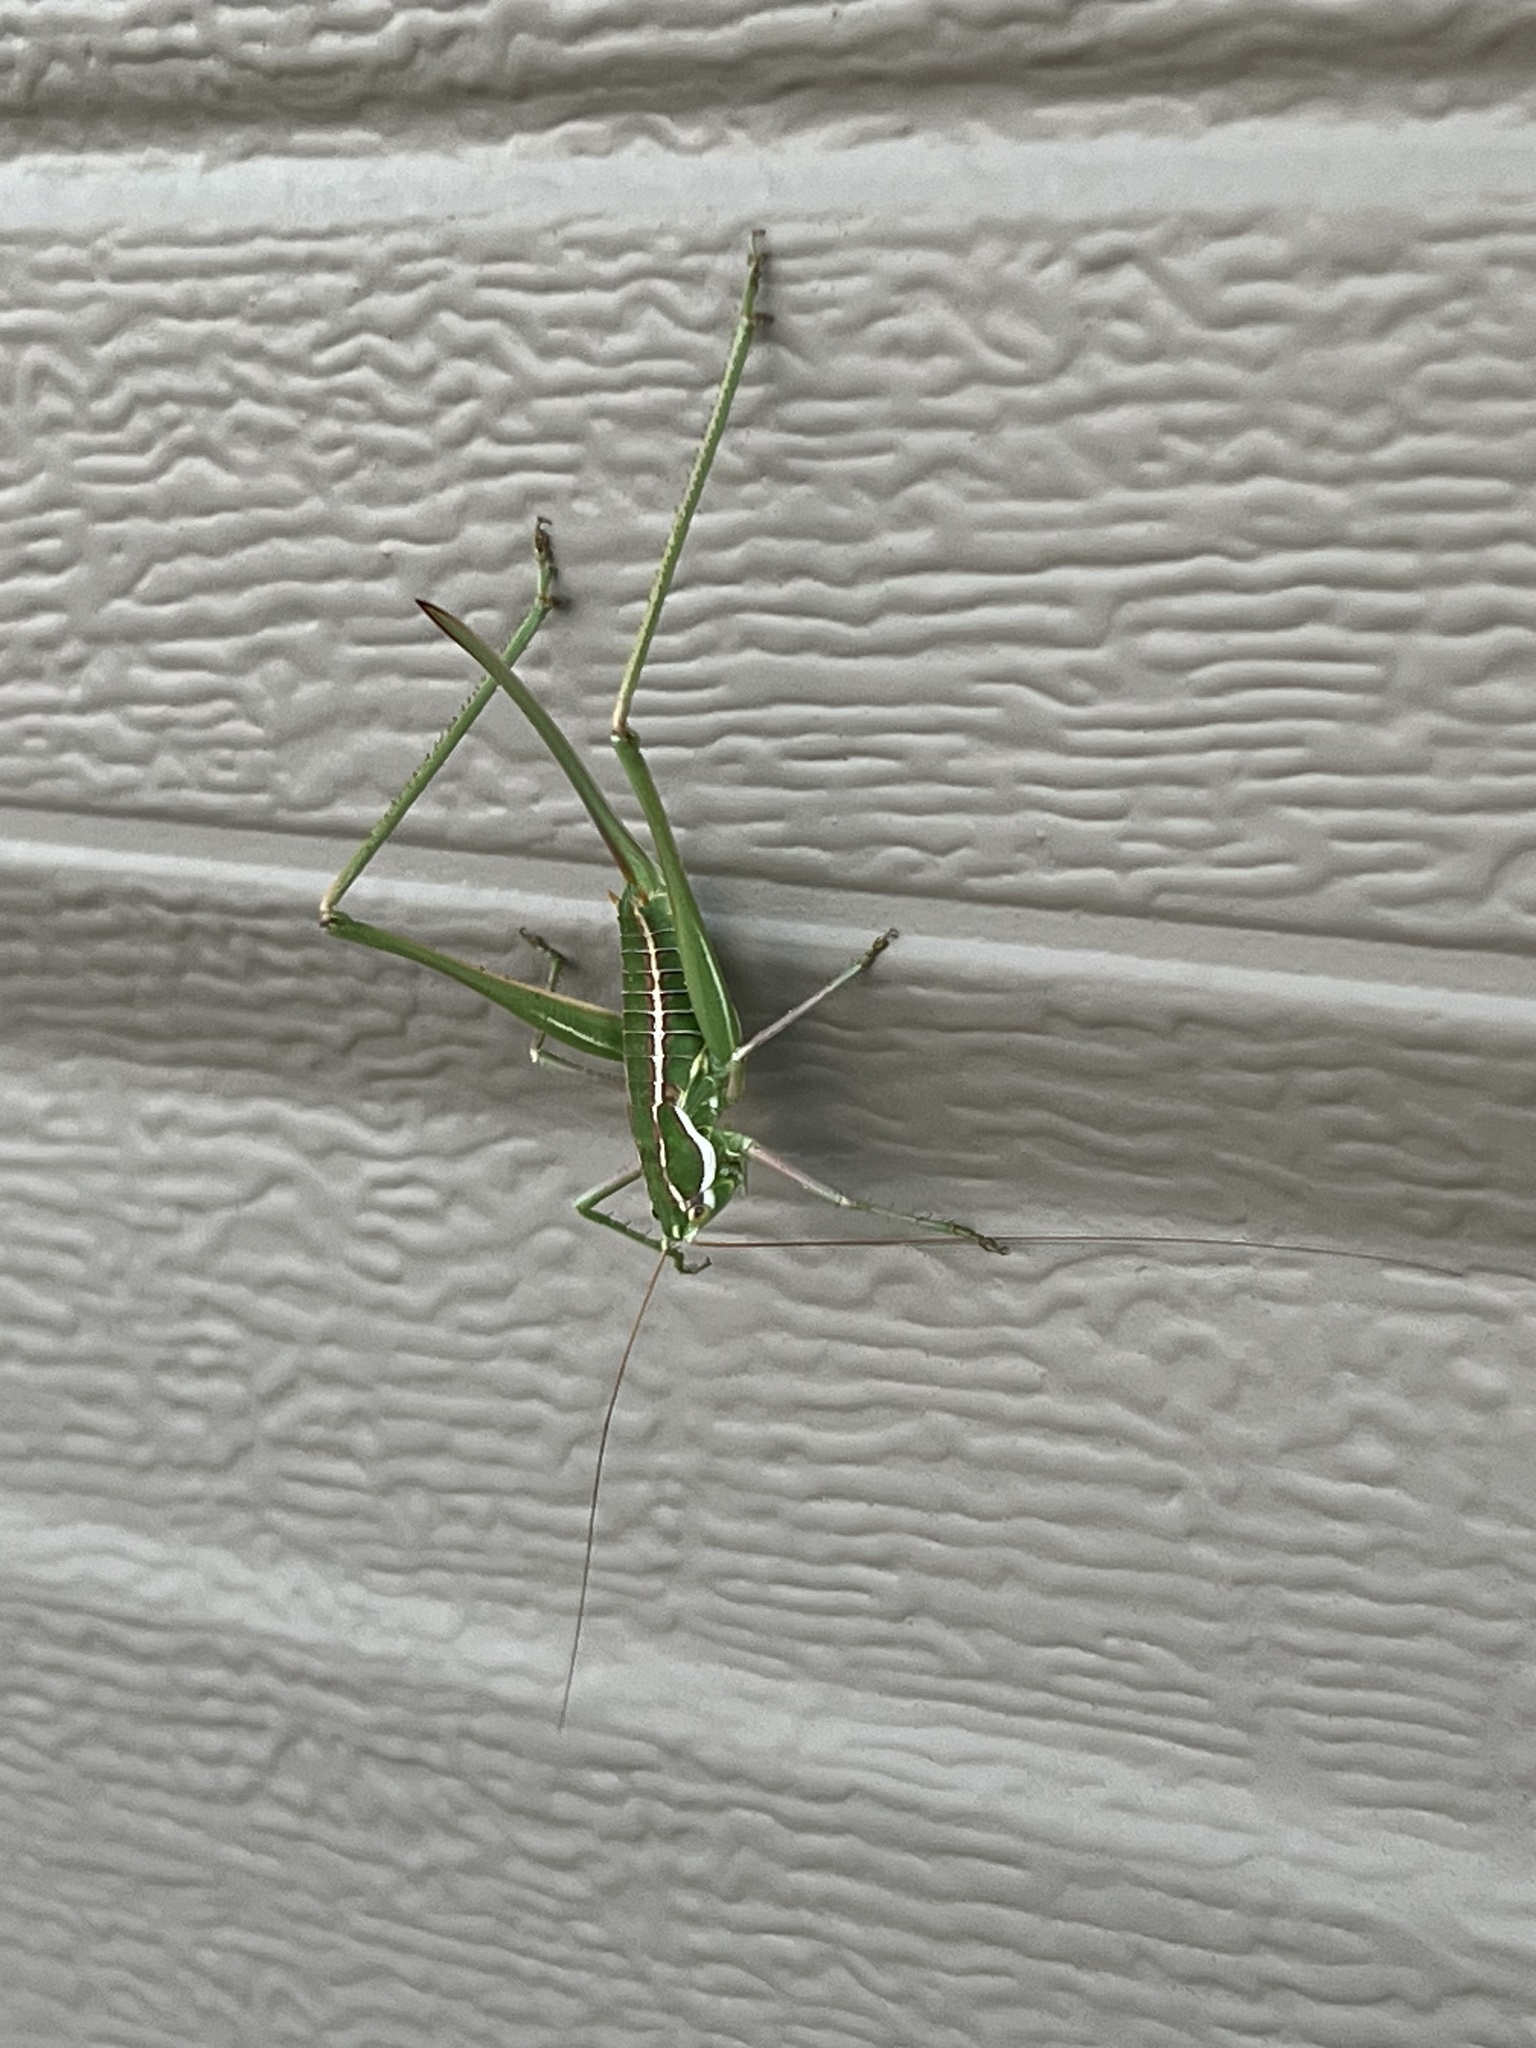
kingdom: Animalia
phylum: Arthropoda
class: Insecta
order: Orthoptera
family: Tettigoniidae
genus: Eremopedes
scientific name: Eremopedes bilineatus
